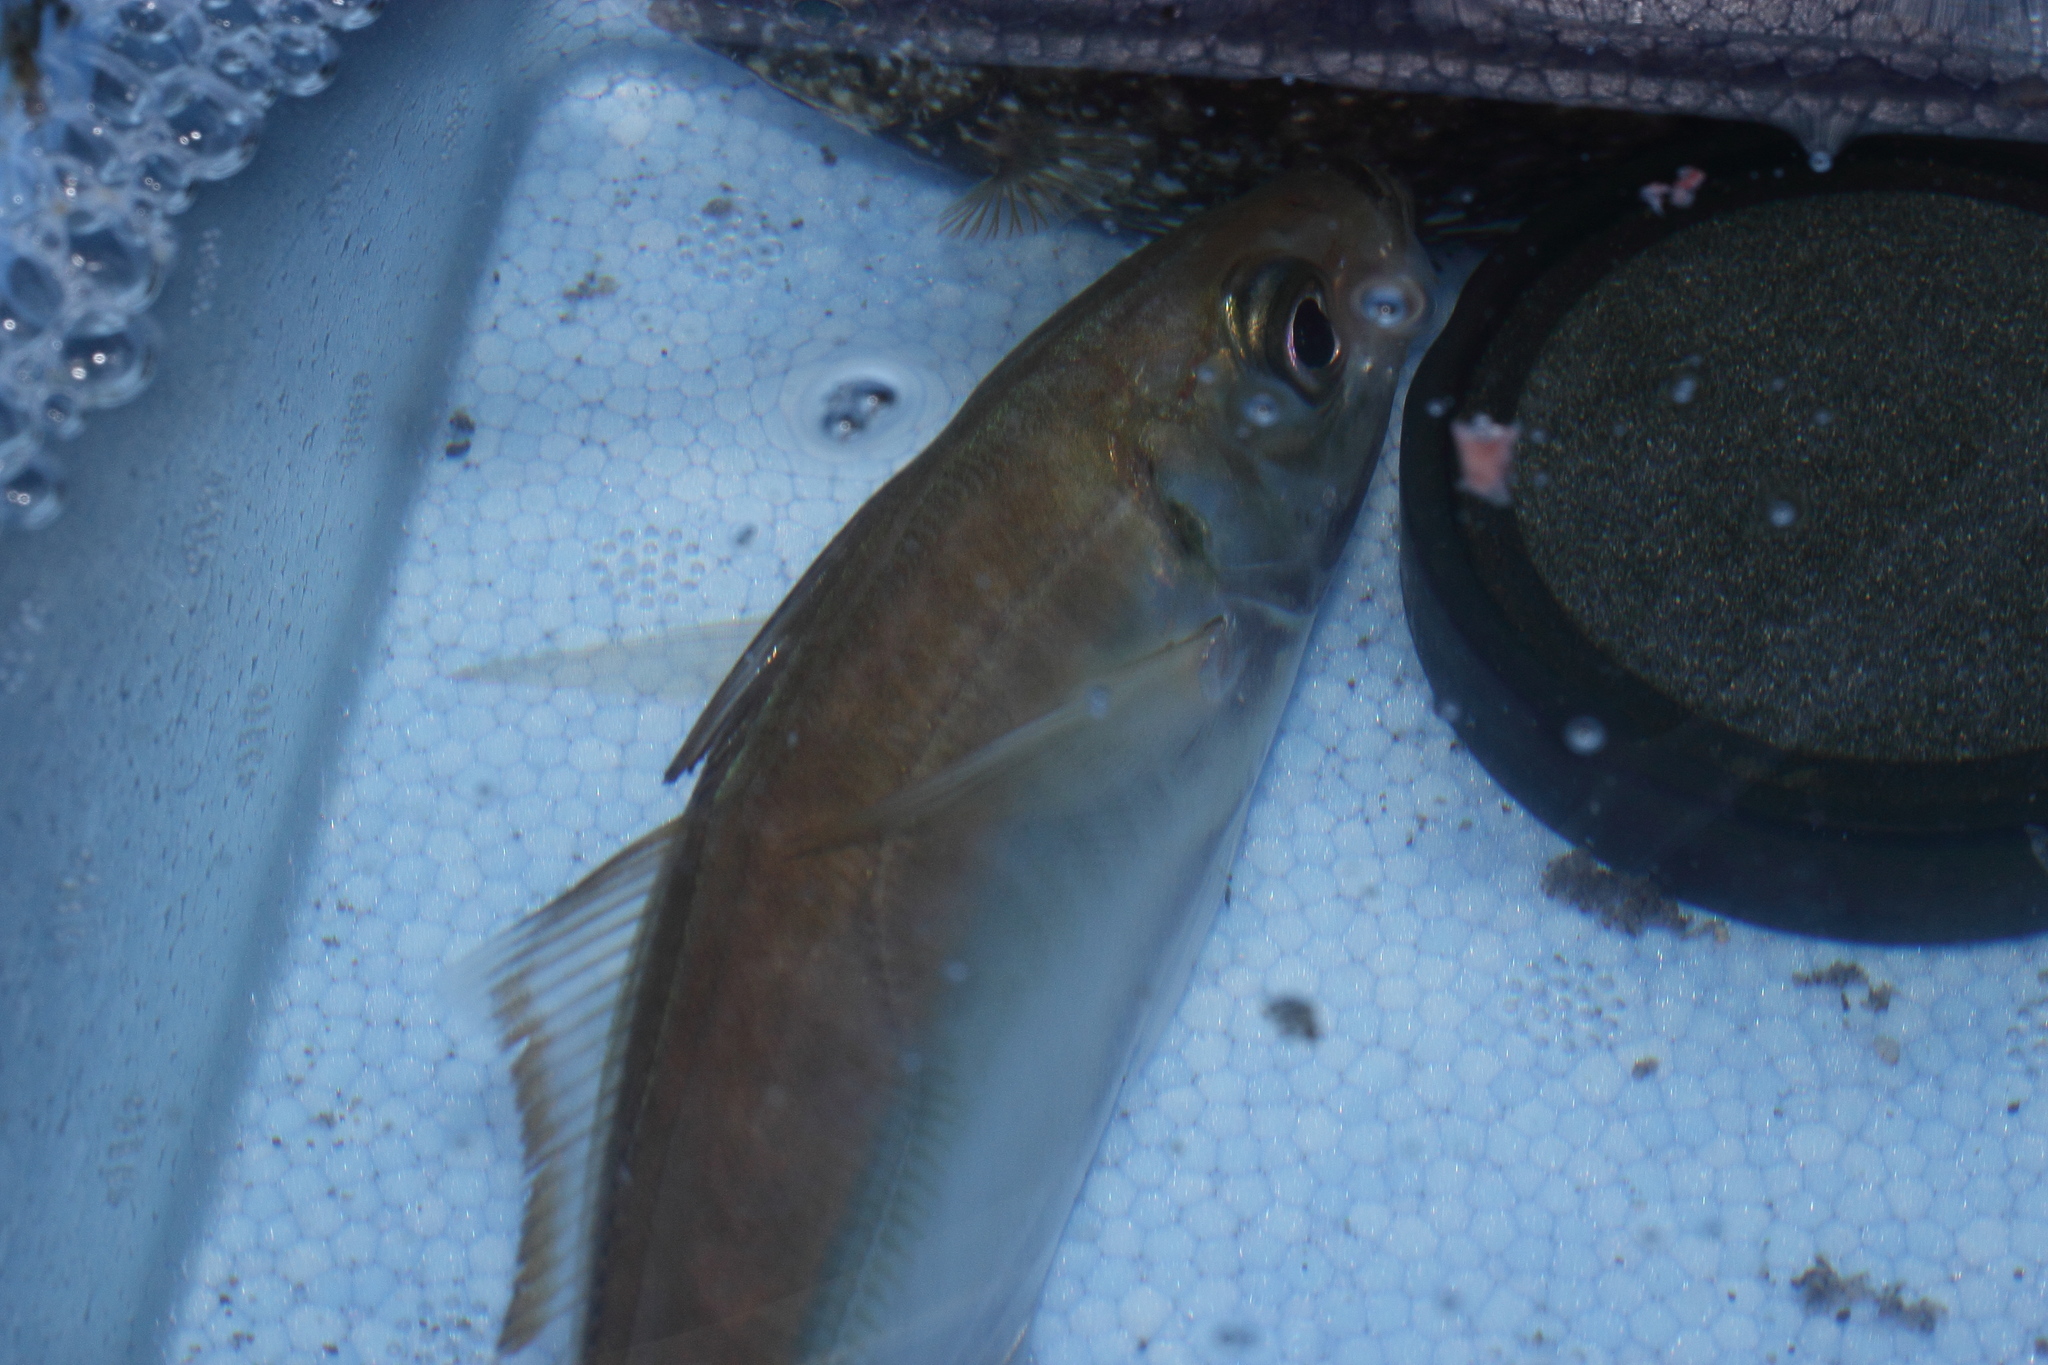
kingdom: Animalia
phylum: Chordata
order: Perciformes
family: Carangidae
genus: Trachurus
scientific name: Trachurus japonicus
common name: Japanese jack mackerel
